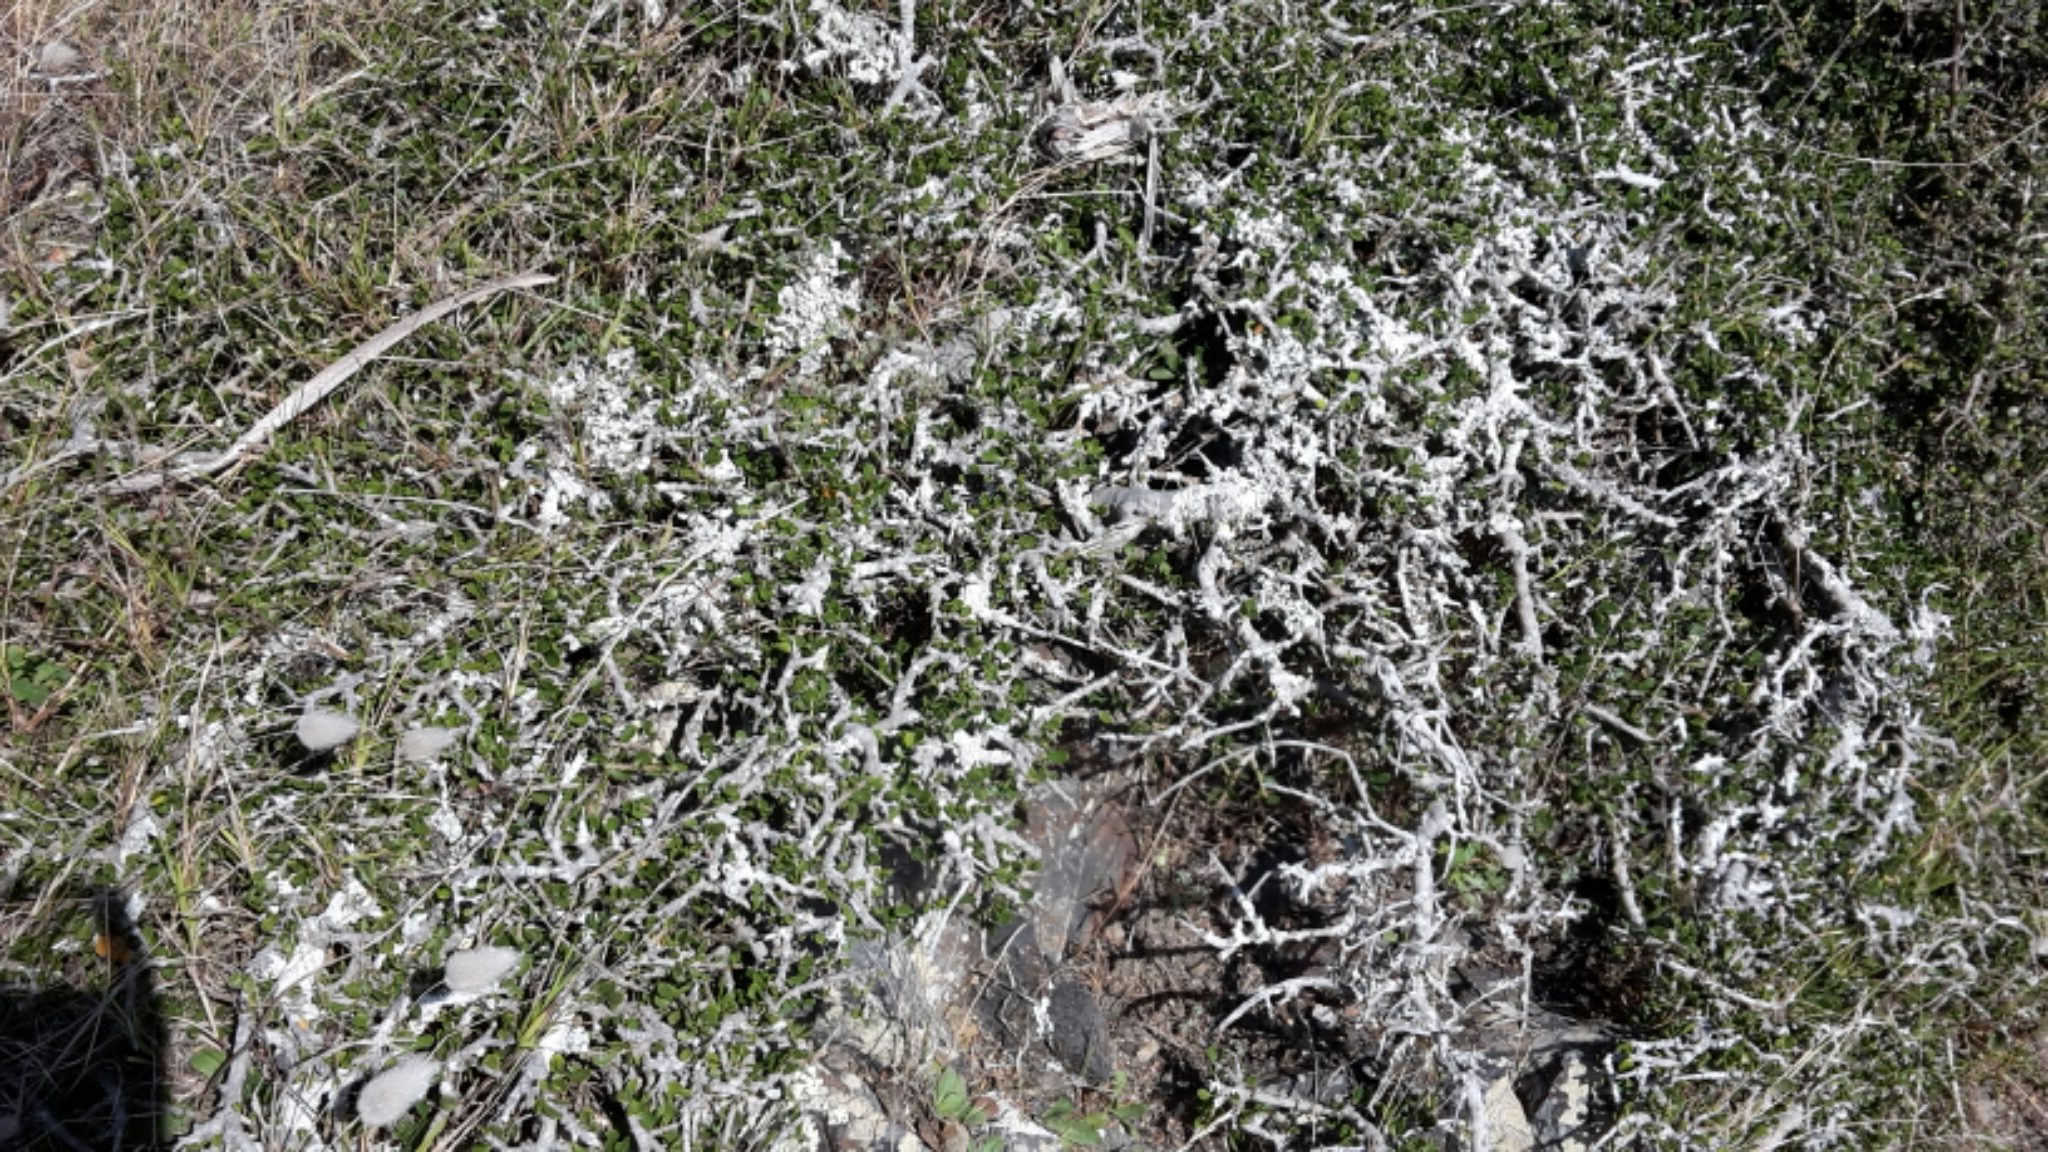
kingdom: Plantae
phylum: Tracheophyta
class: Magnoliopsida
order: Malpighiales
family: Violaceae
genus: Melicytus
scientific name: Melicytus crassifolius
